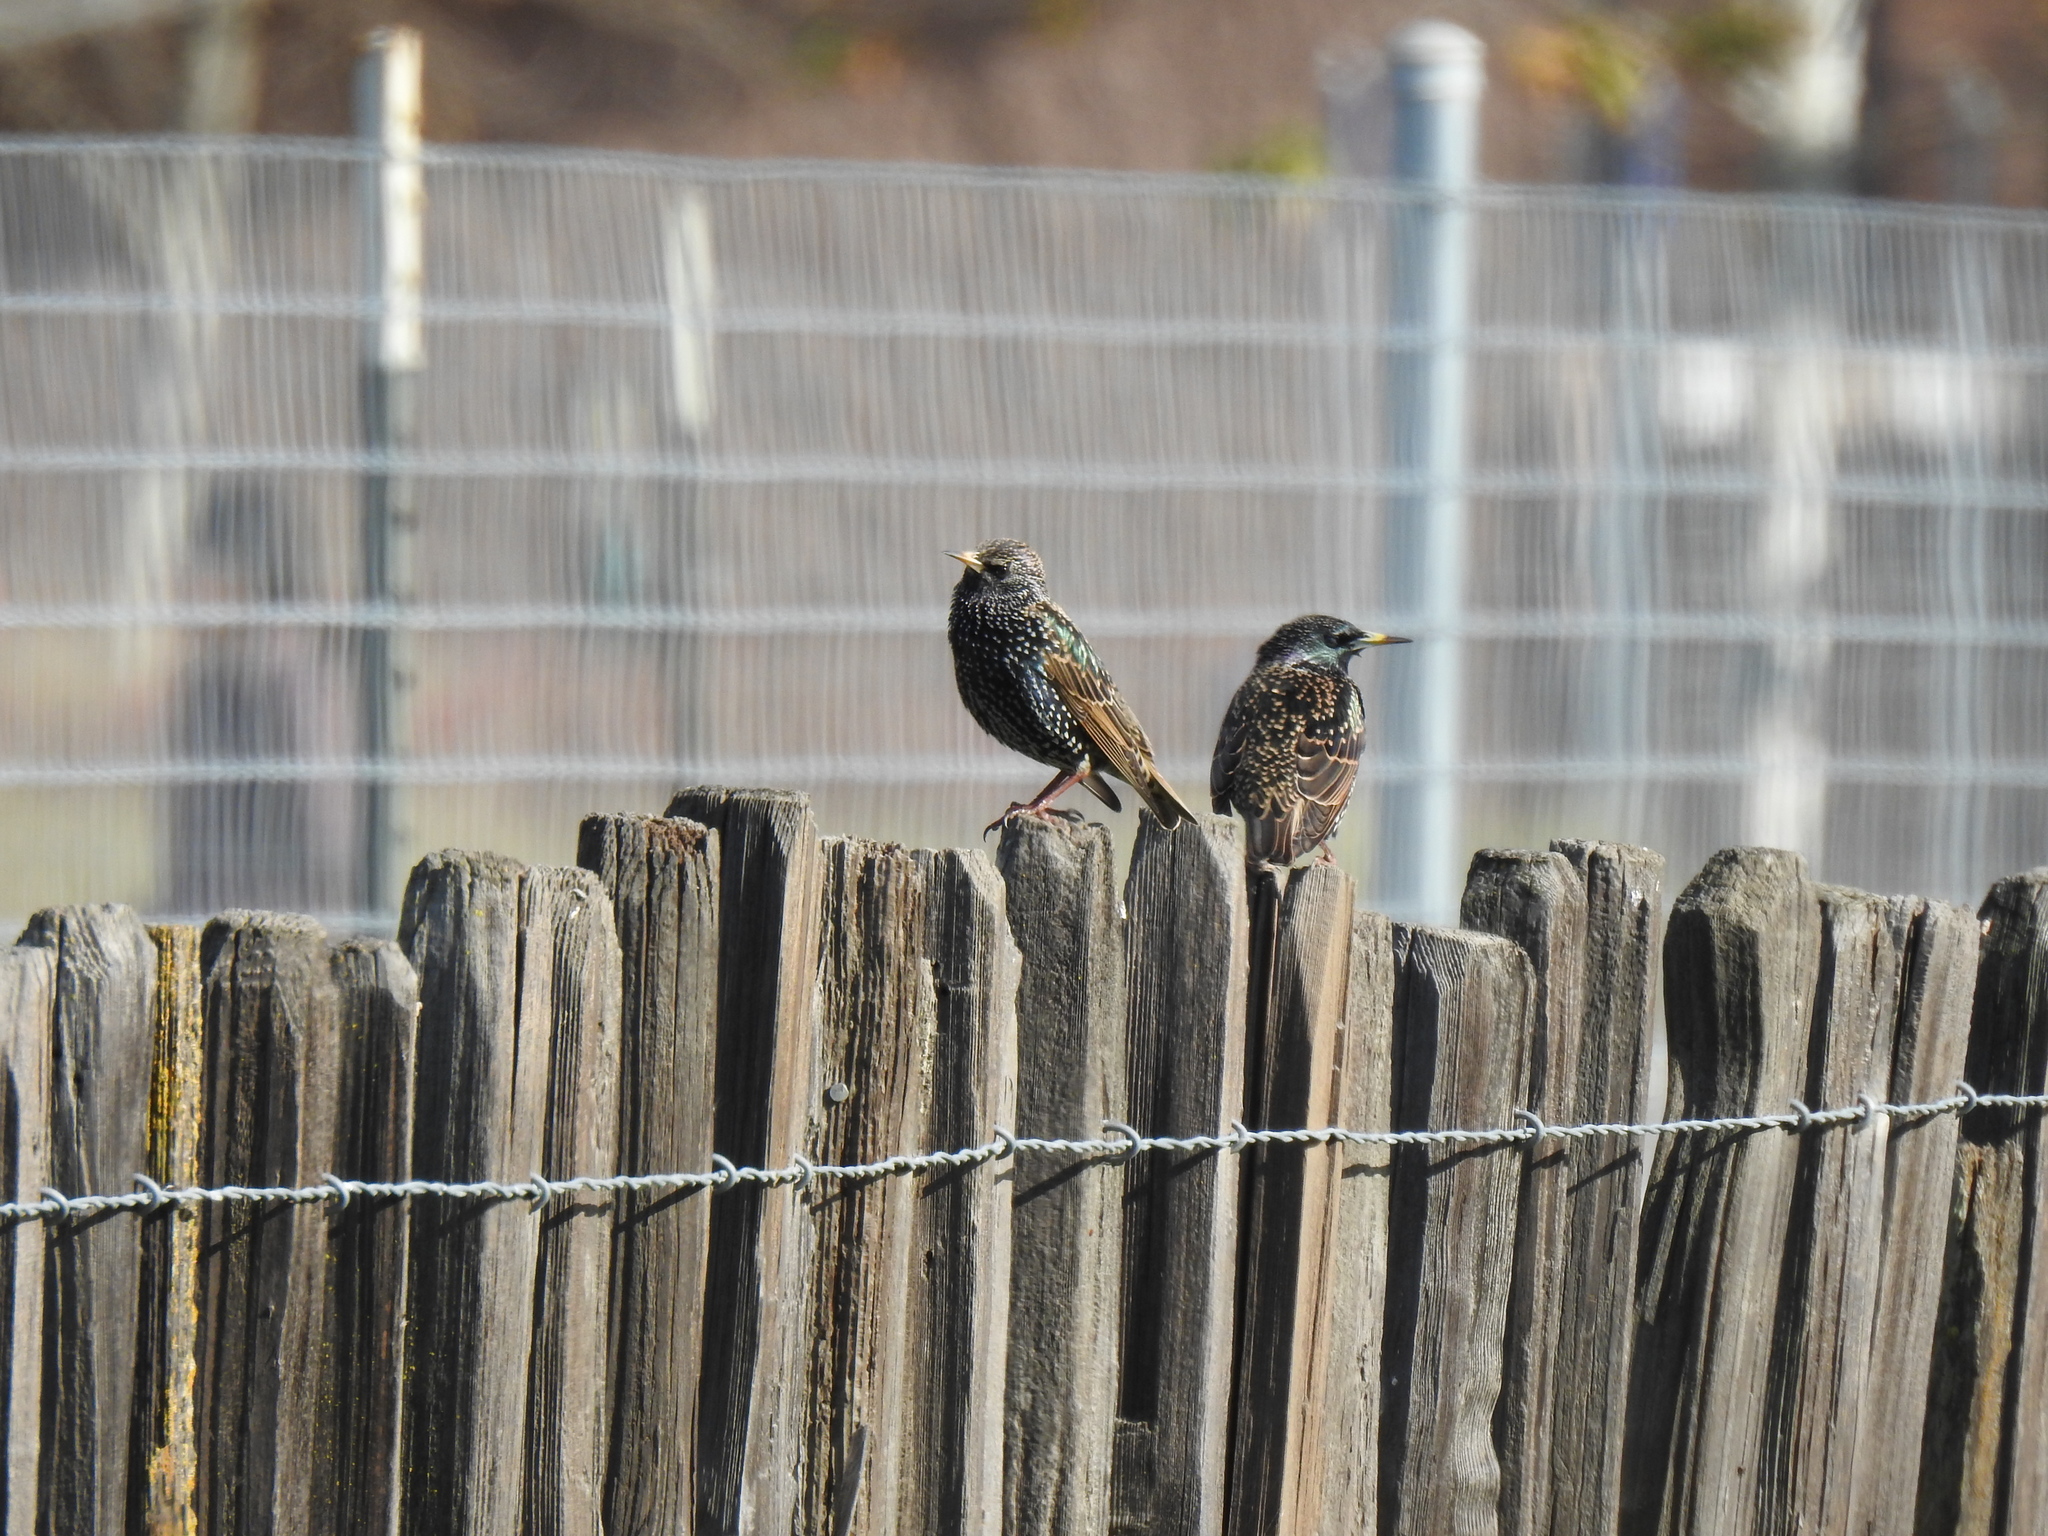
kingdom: Animalia
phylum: Chordata
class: Aves
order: Passeriformes
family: Sturnidae
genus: Sturnus
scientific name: Sturnus vulgaris
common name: Common starling
